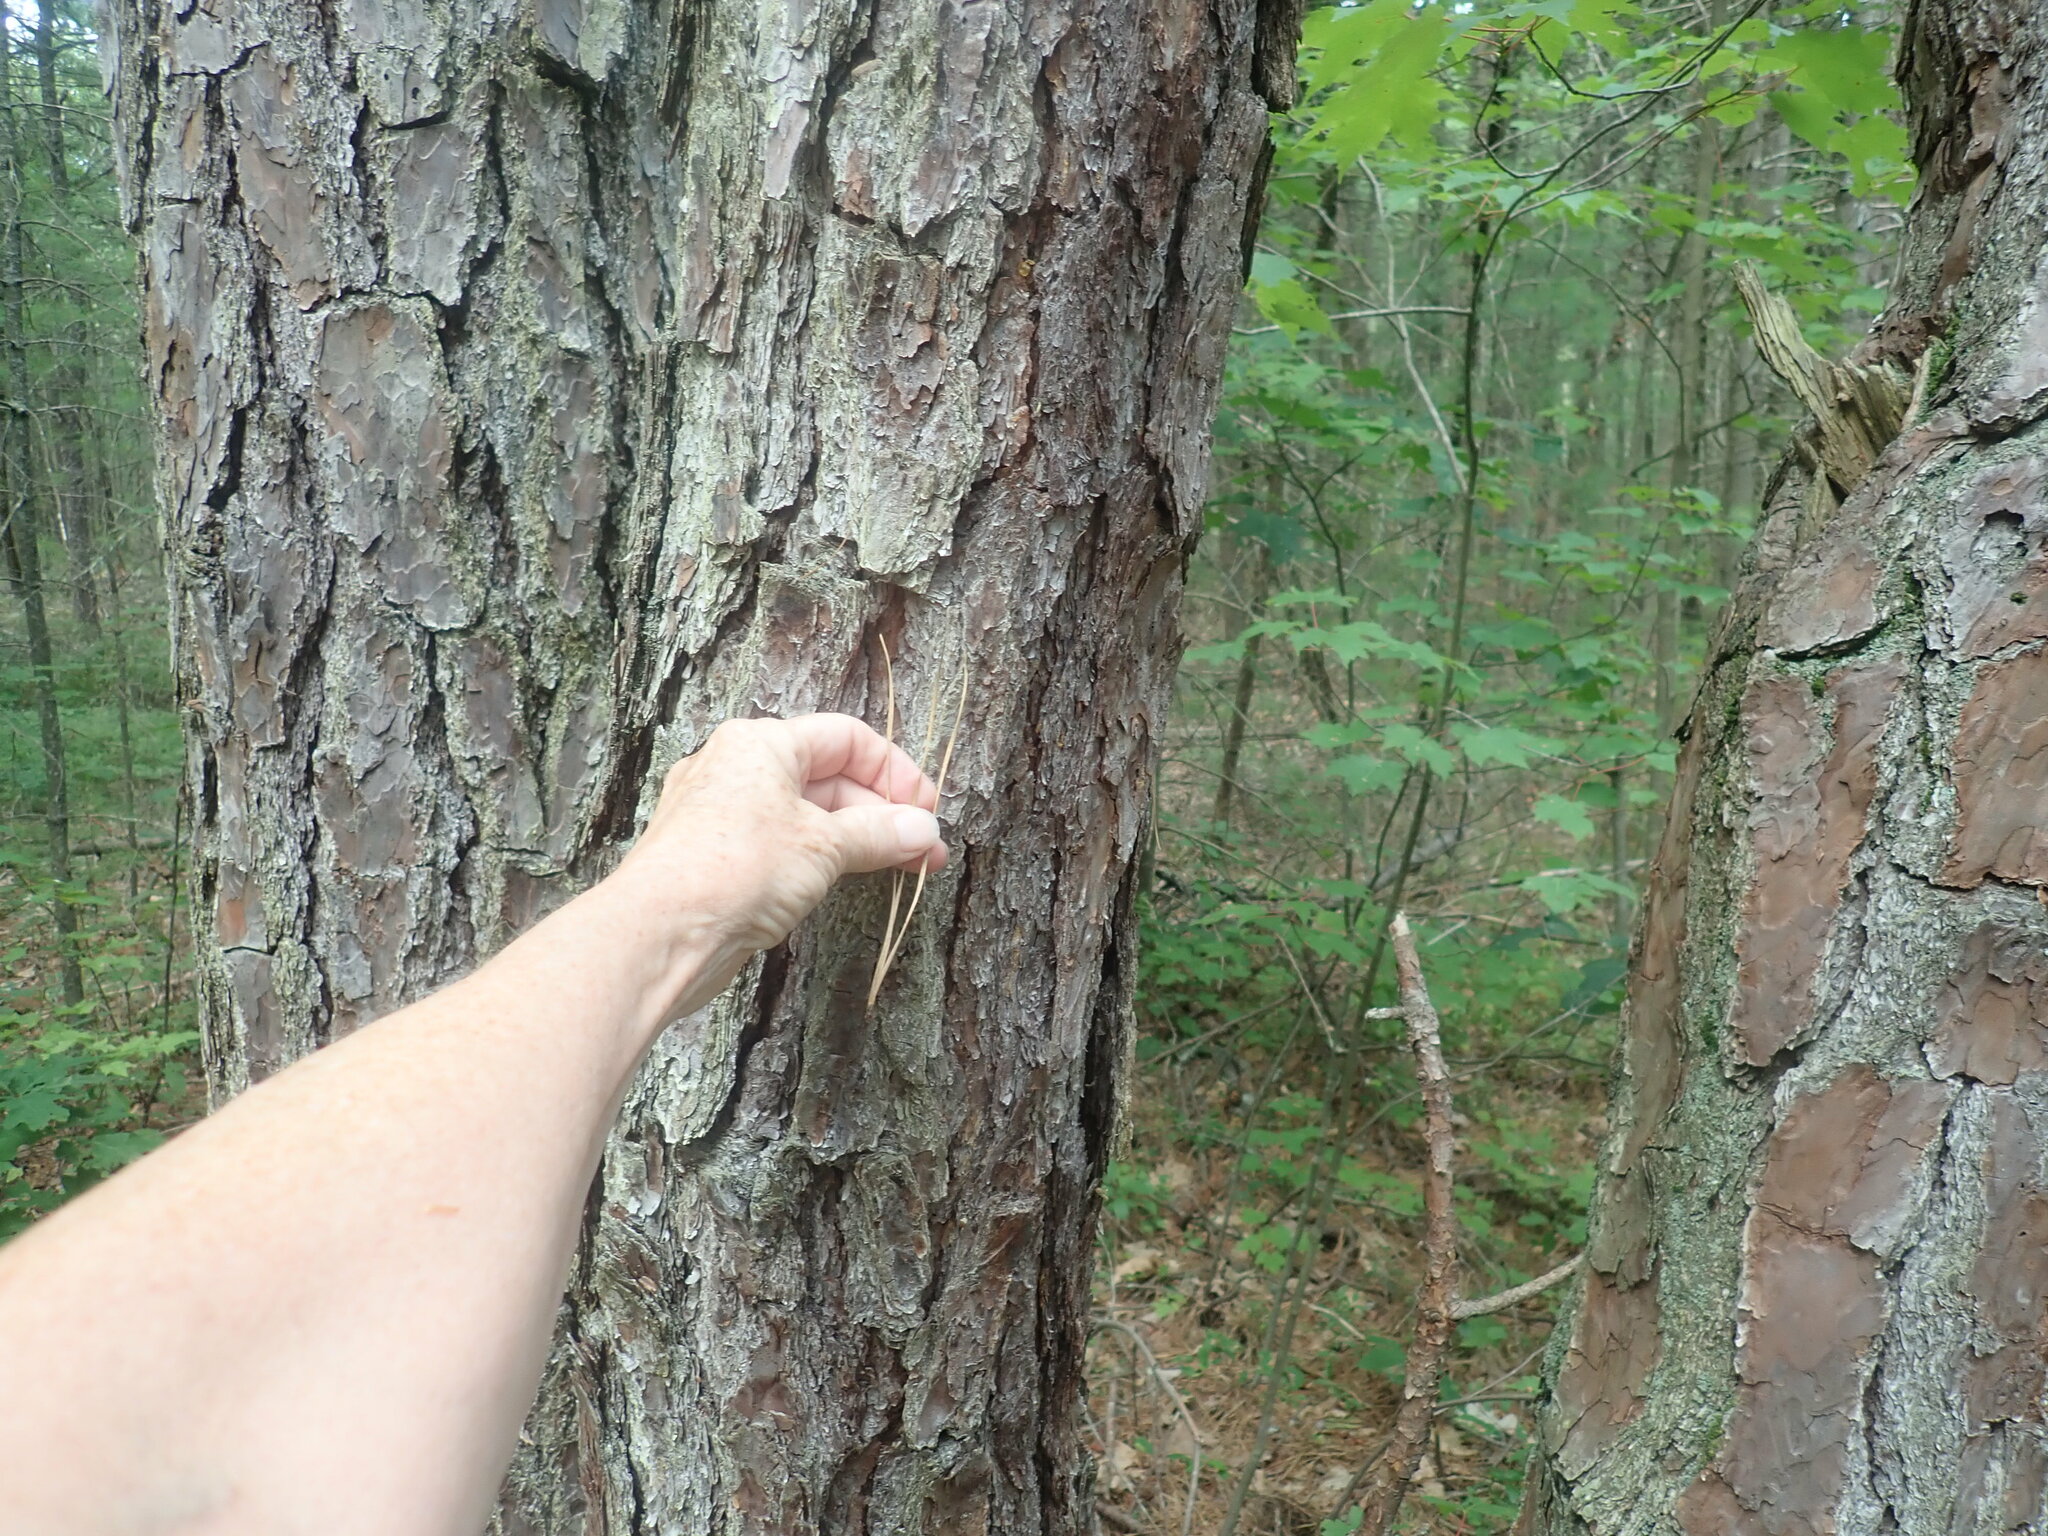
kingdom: Plantae
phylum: Tracheophyta
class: Pinopsida
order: Pinales
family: Pinaceae
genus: Pinus
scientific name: Pinus rigida
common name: Pitch pine
